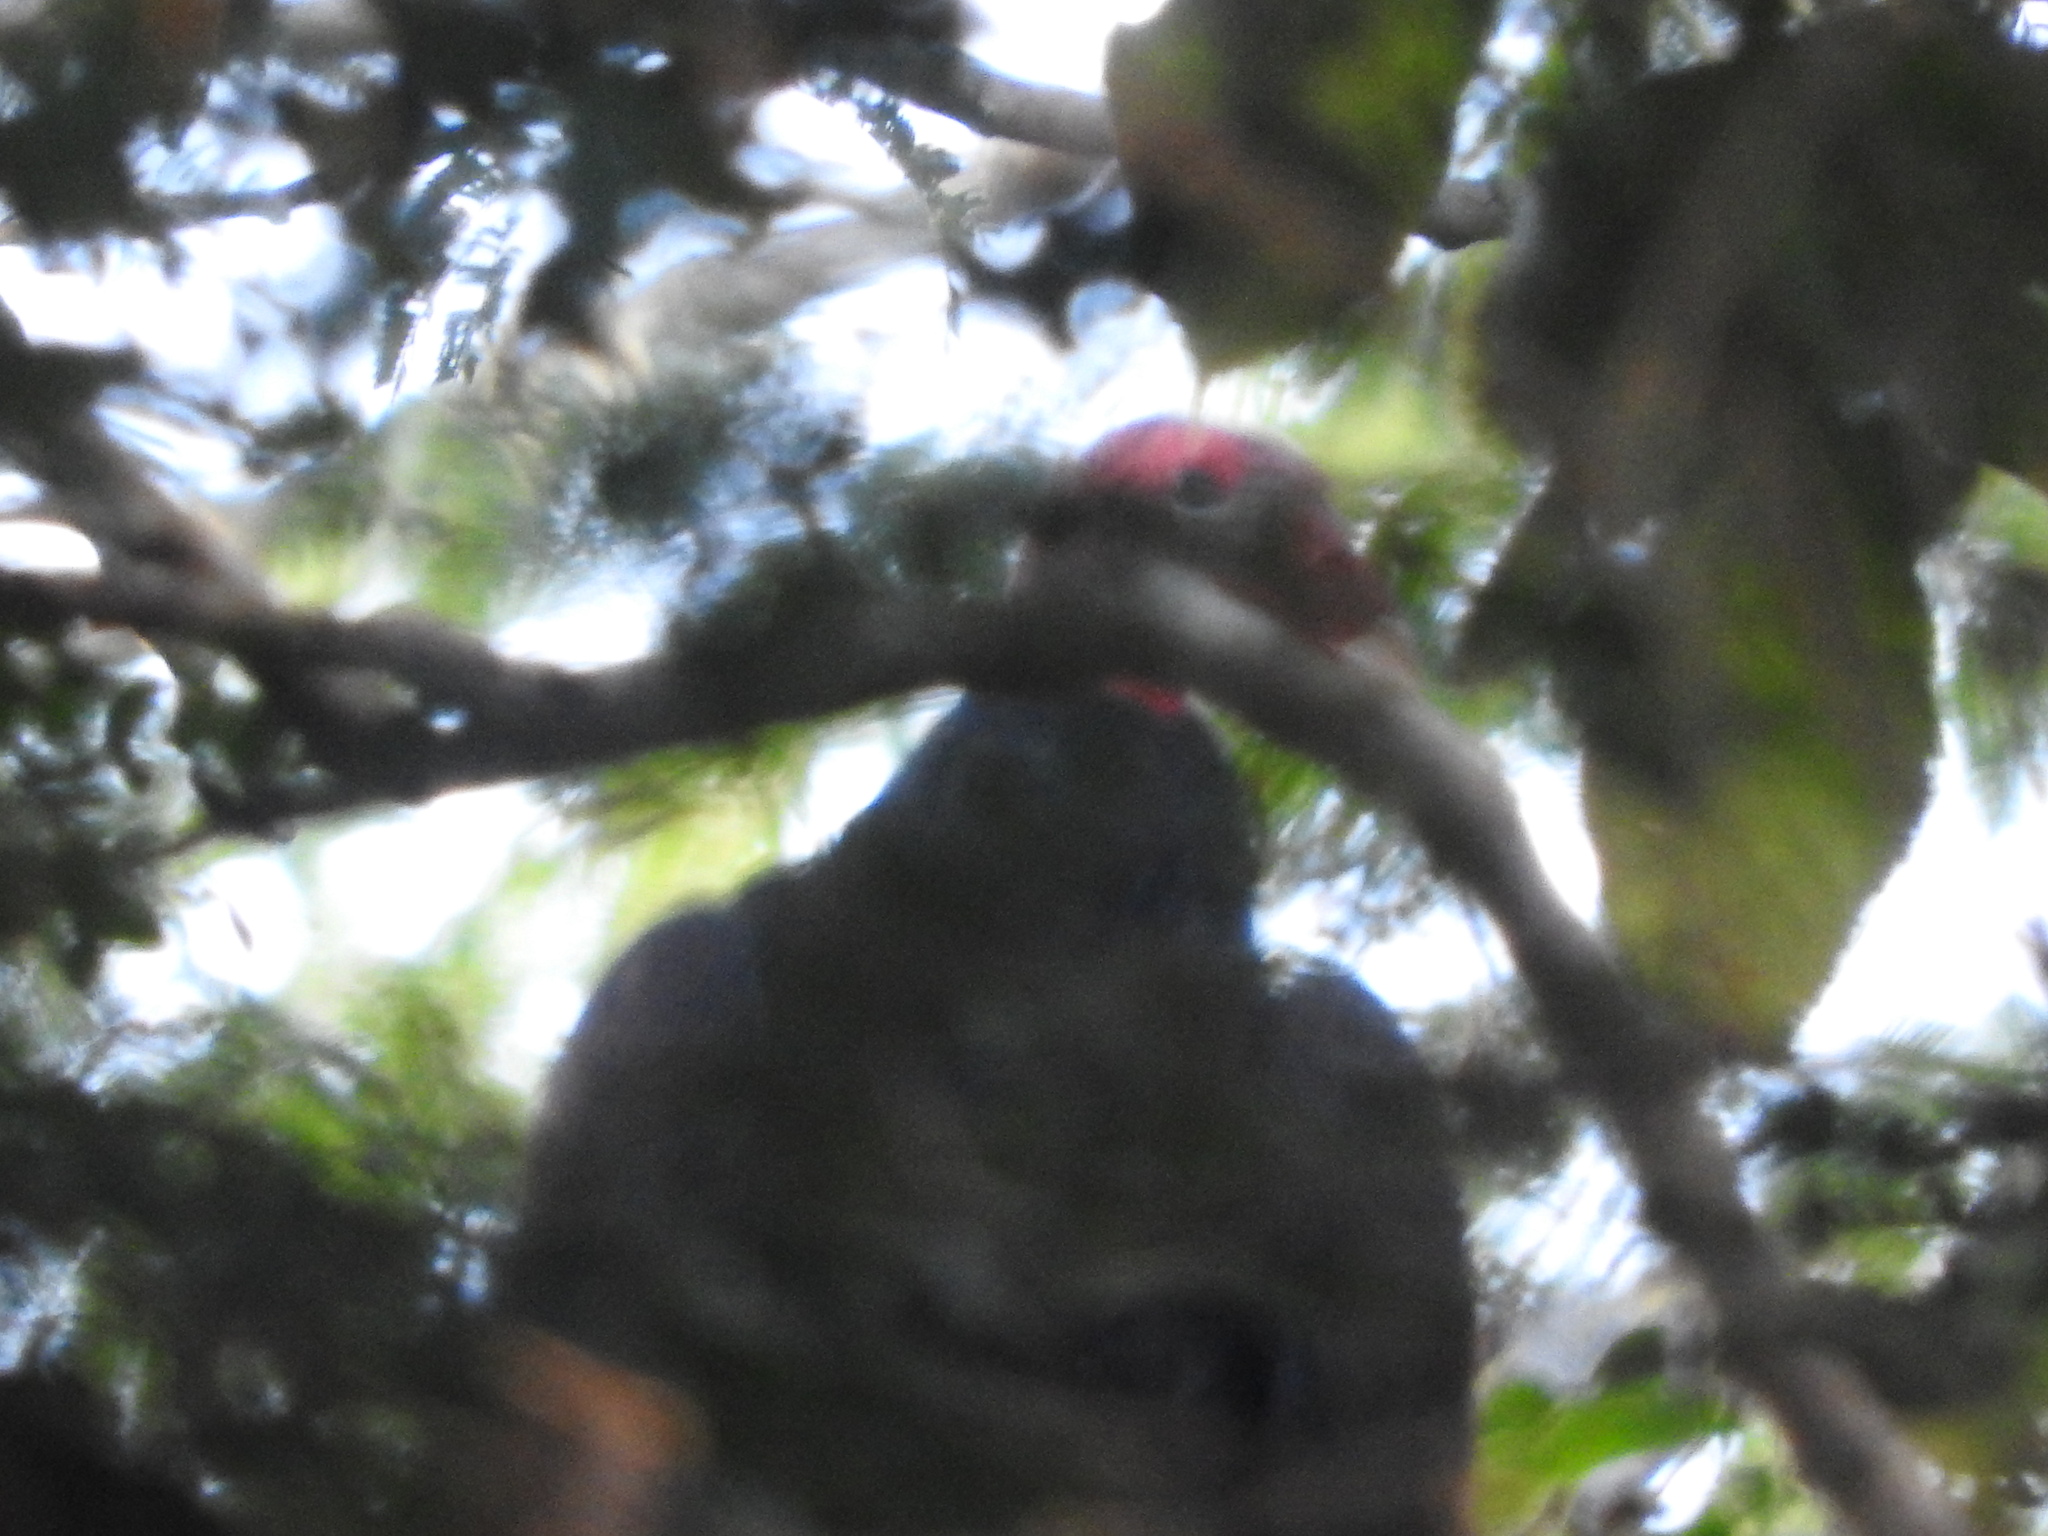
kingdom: Animalia
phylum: Chordata
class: Aves
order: Accipitriformes
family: Cathartidae
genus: Cathartes
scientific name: Cathartes aura
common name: Turkey vulture
